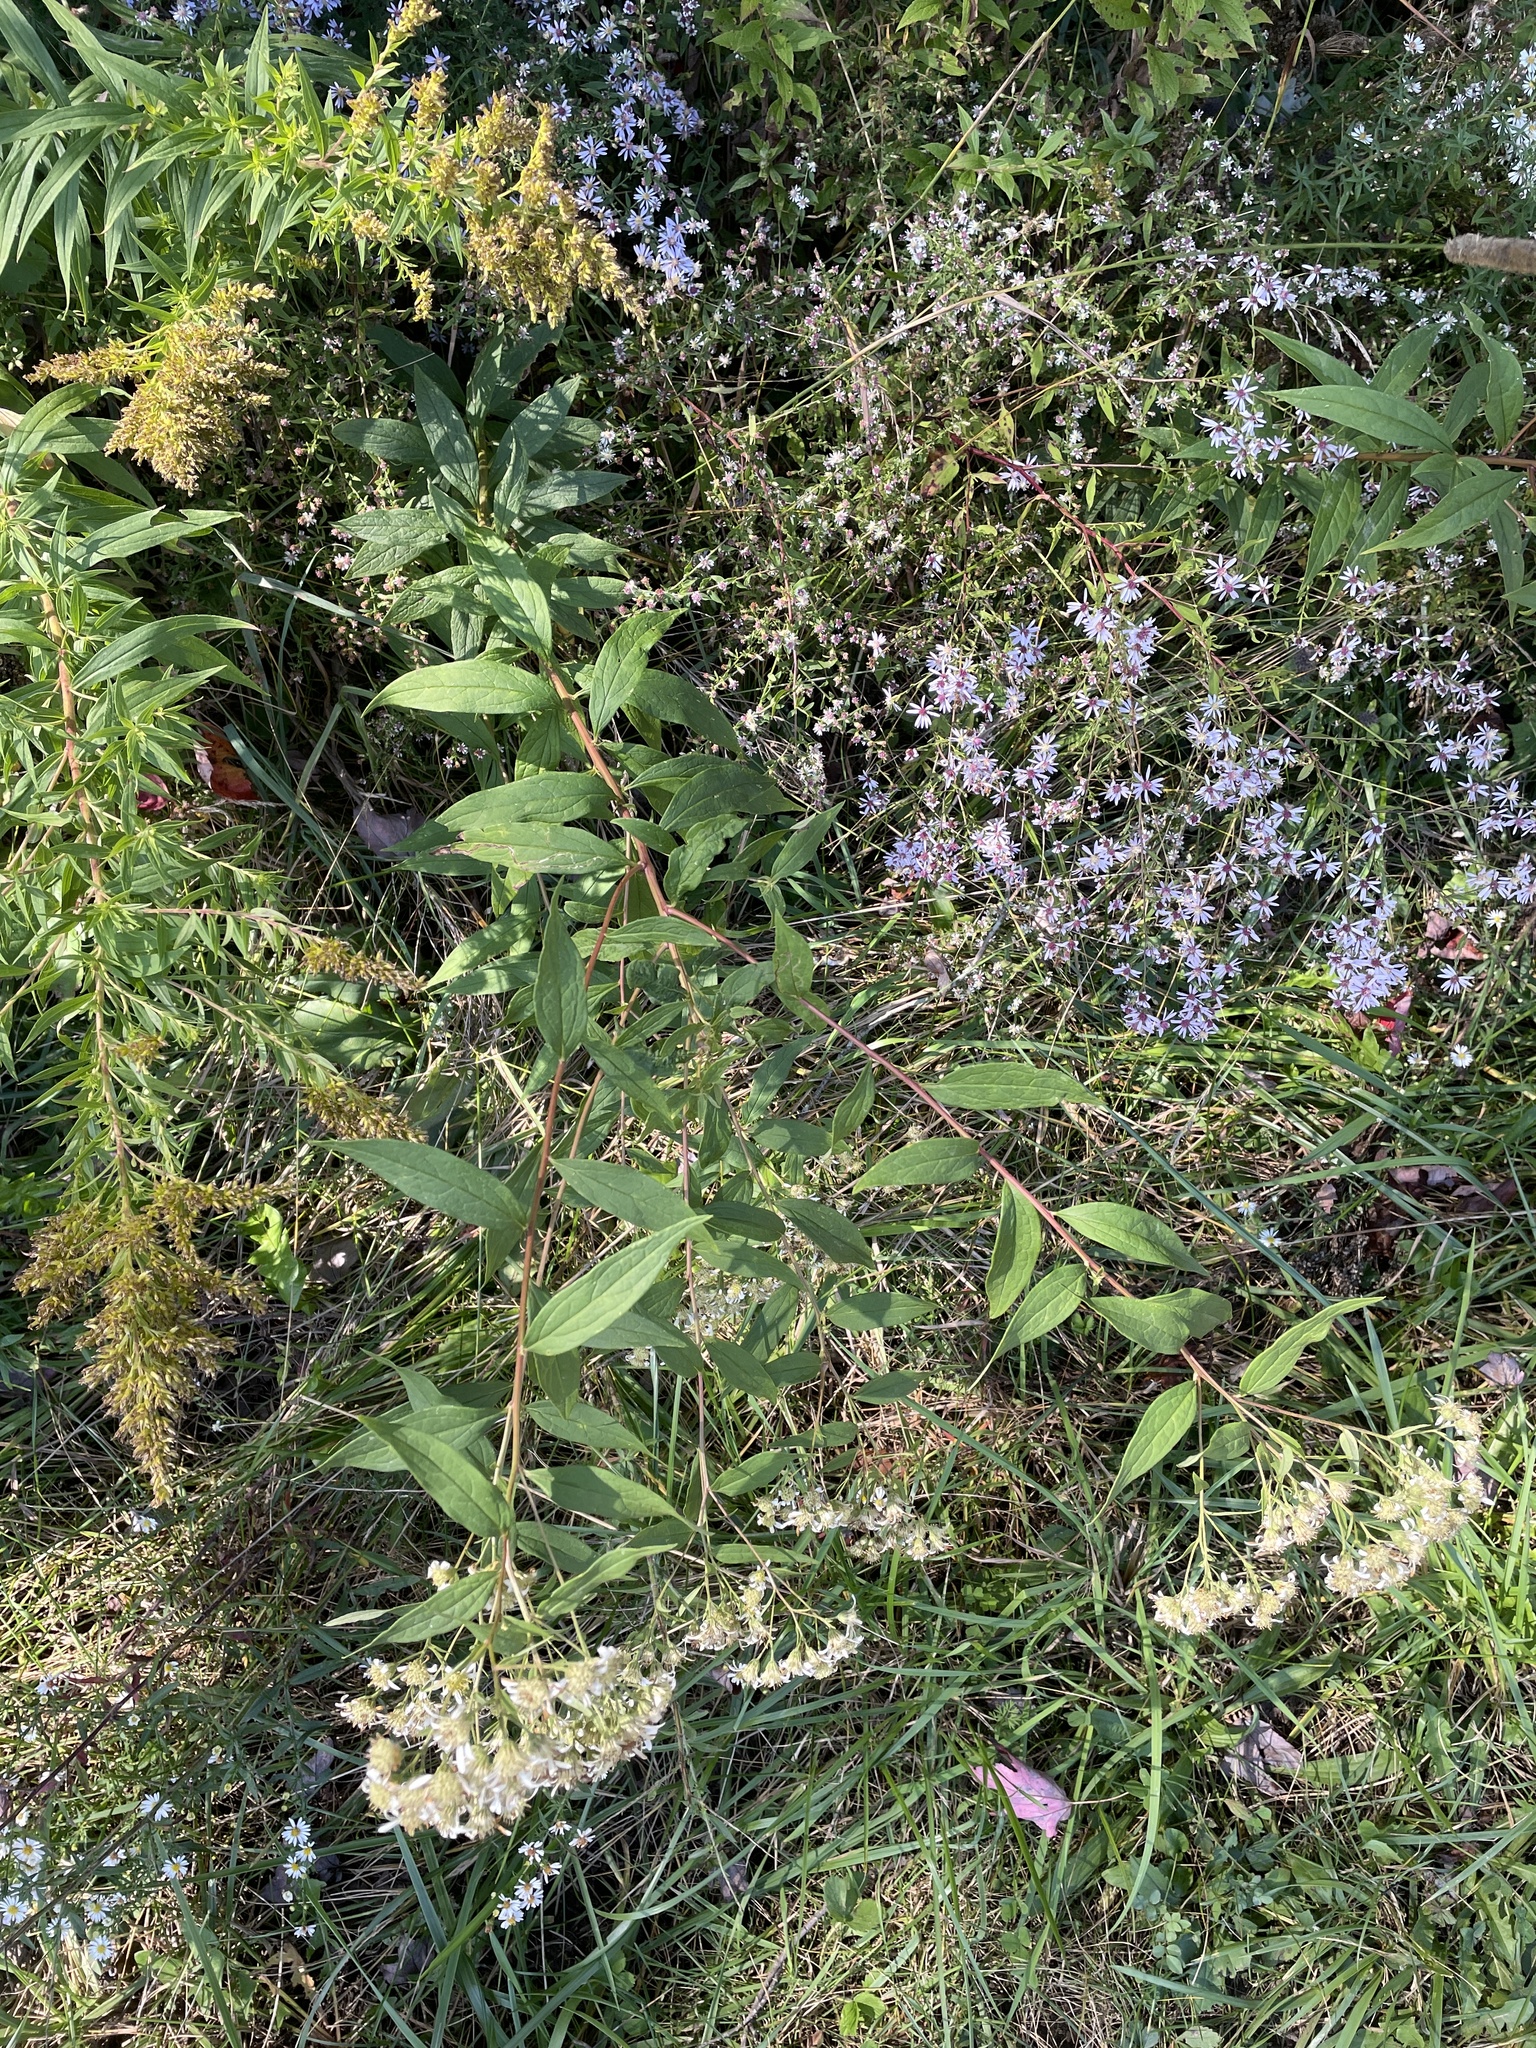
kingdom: Plantae
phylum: Tracheophyta
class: Magnoliopsida
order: Asterales
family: Asteraceae
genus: Doellingeria
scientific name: Doellingeria umbellata
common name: Flat-top white aster
